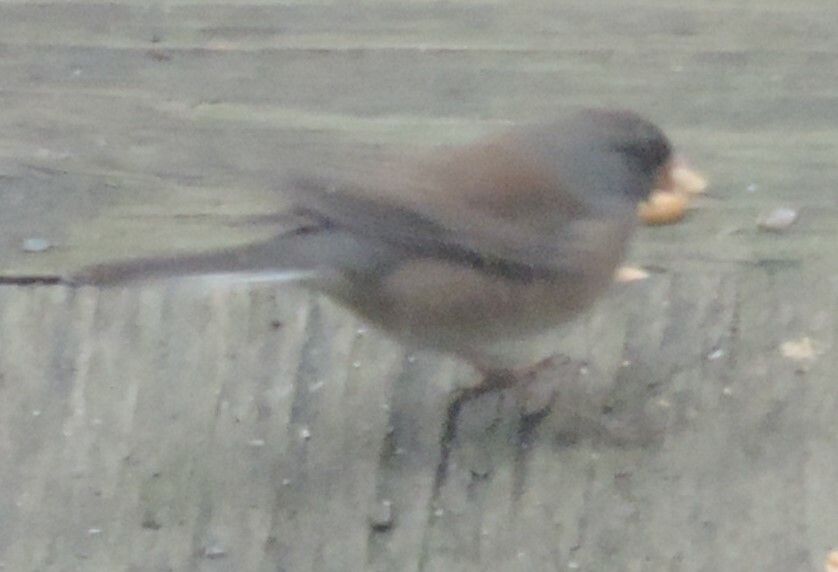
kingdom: Animalia
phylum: Chordata
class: Aves
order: Passeriformes
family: Passerellidae
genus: Junco
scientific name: Junco hyemalis
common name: Dark-eyed junco
